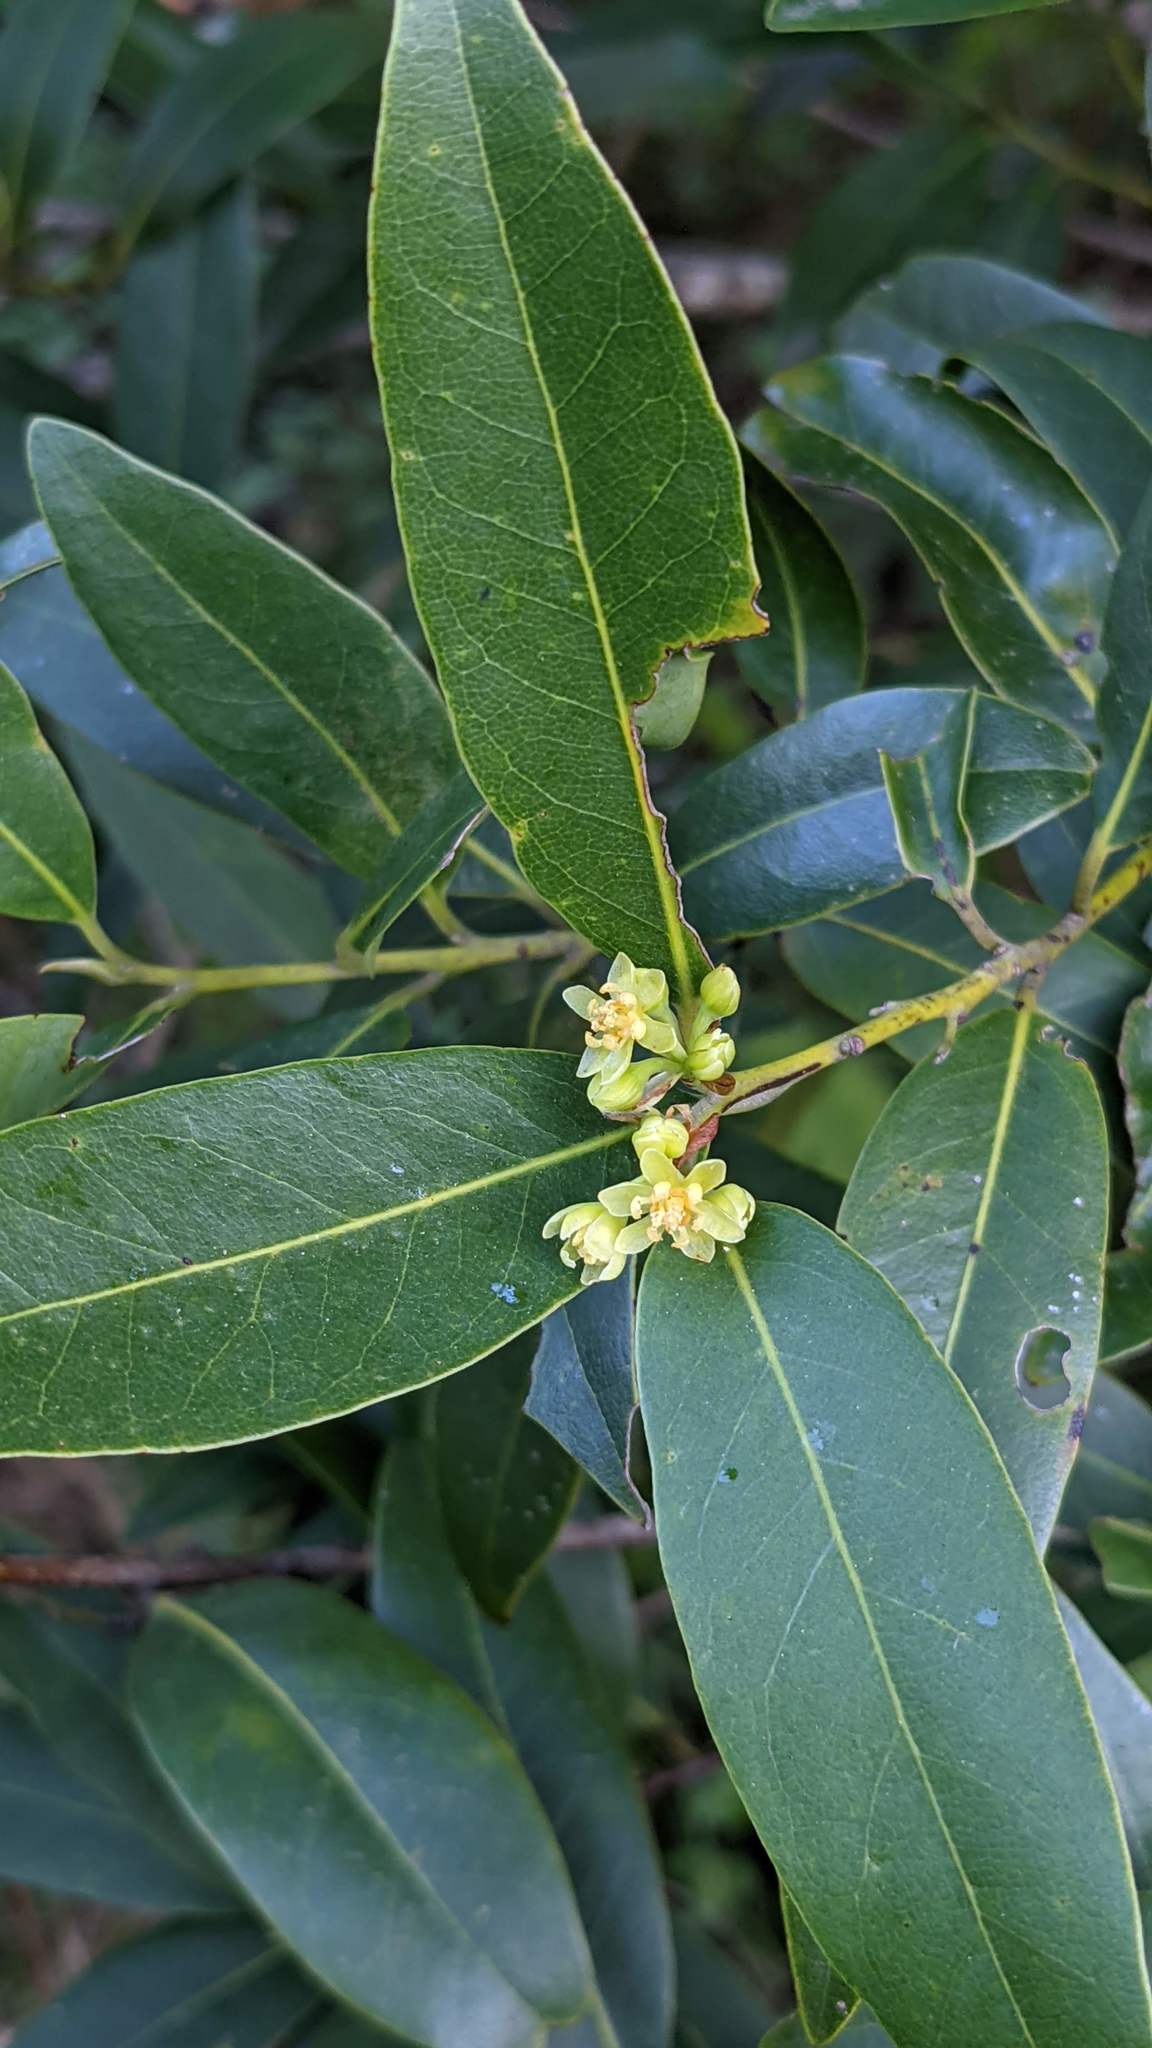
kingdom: Plantae
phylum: Tracheophyta
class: Magnoliopsida
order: Laurales
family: Lauraceae
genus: Umbellularia
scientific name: Umbellularia californica
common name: California bay
